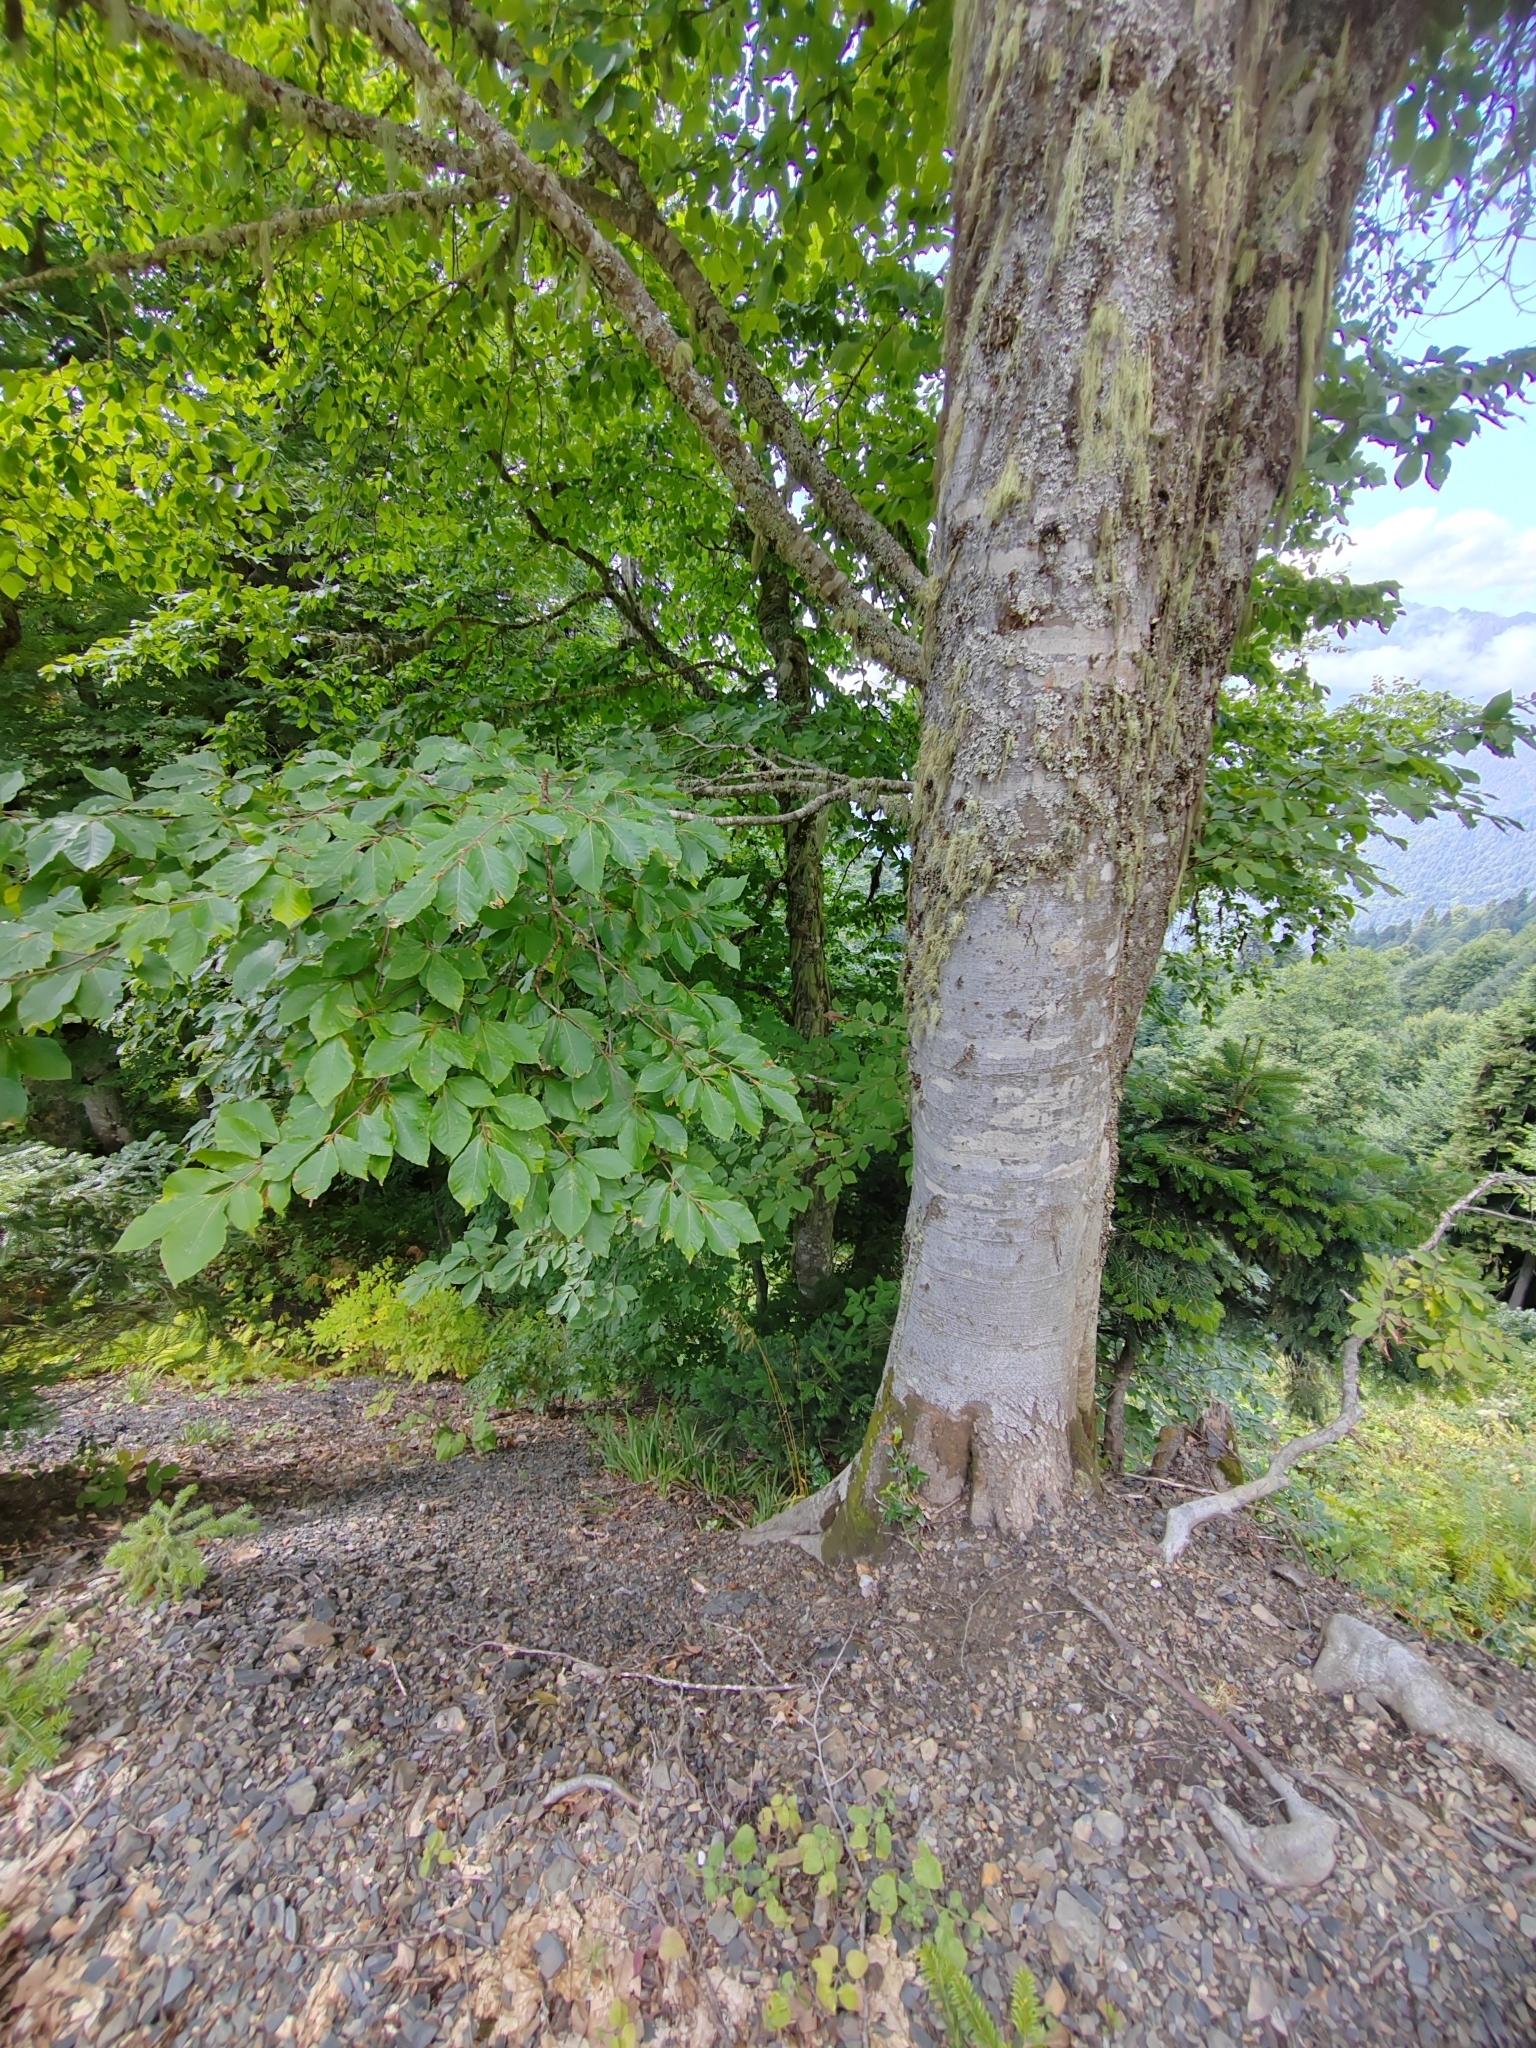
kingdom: Plantae
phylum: Tracheophyta
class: Magnoliopsida
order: Fagales
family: Fagaceae
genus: Fagus
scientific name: Fagus orientalis
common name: Oriental beech
